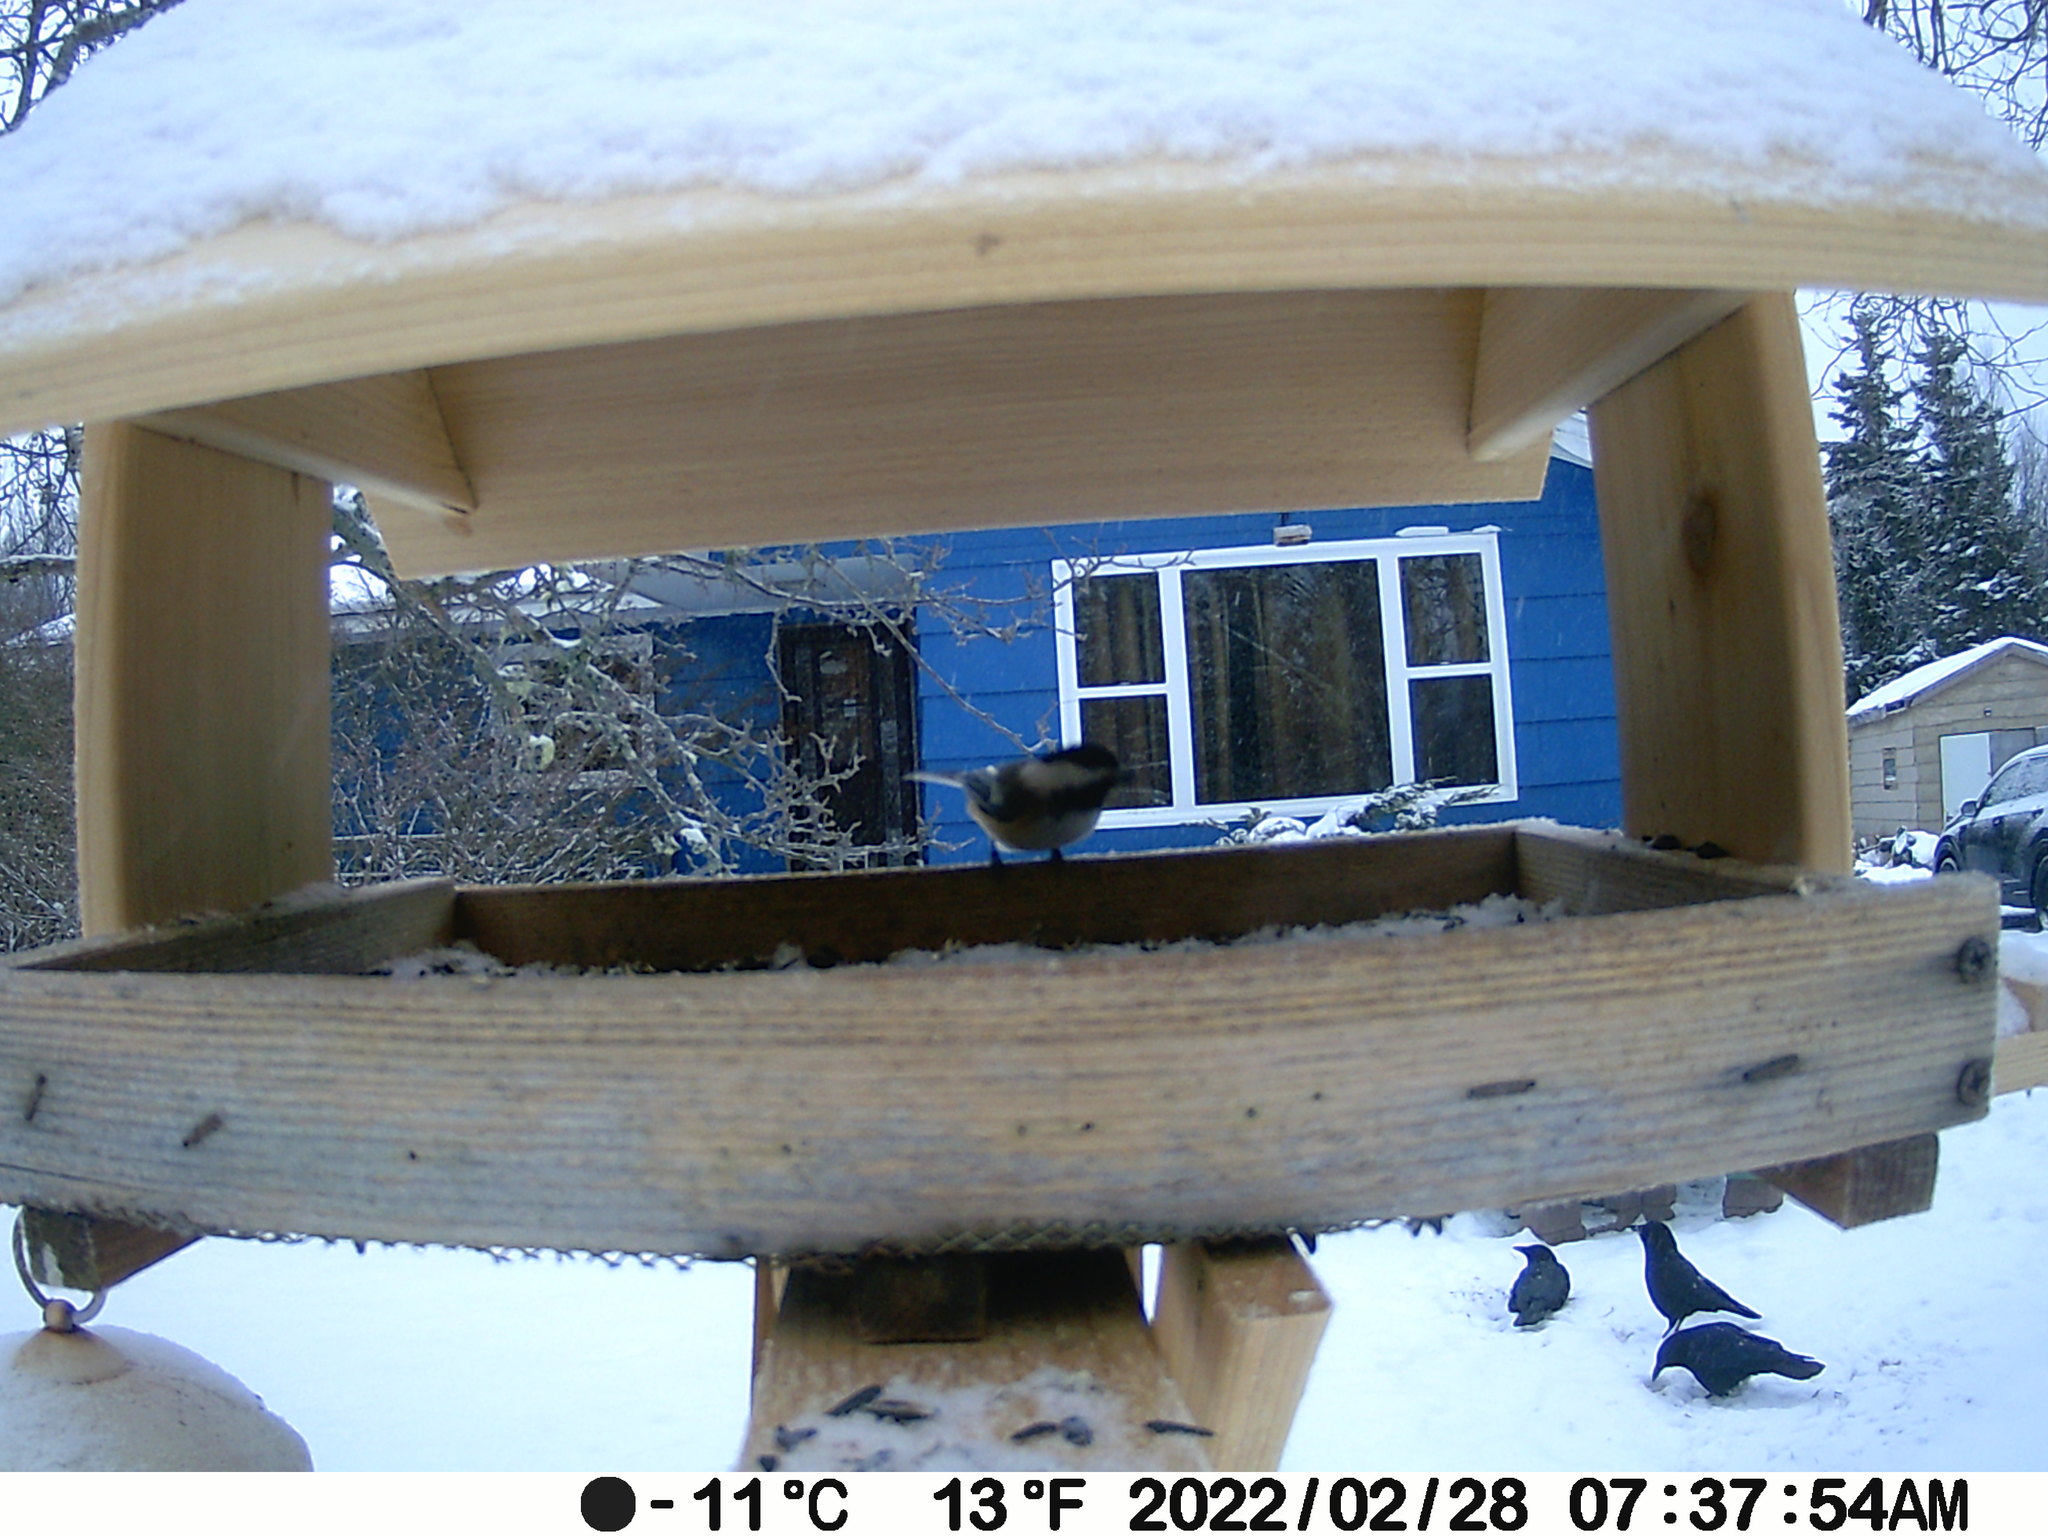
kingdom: Animalia
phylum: Chordata
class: Aves
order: Passeriformes
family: Corvidae
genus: Corvus
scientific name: Corvus brachyrhynchos
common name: American crow
